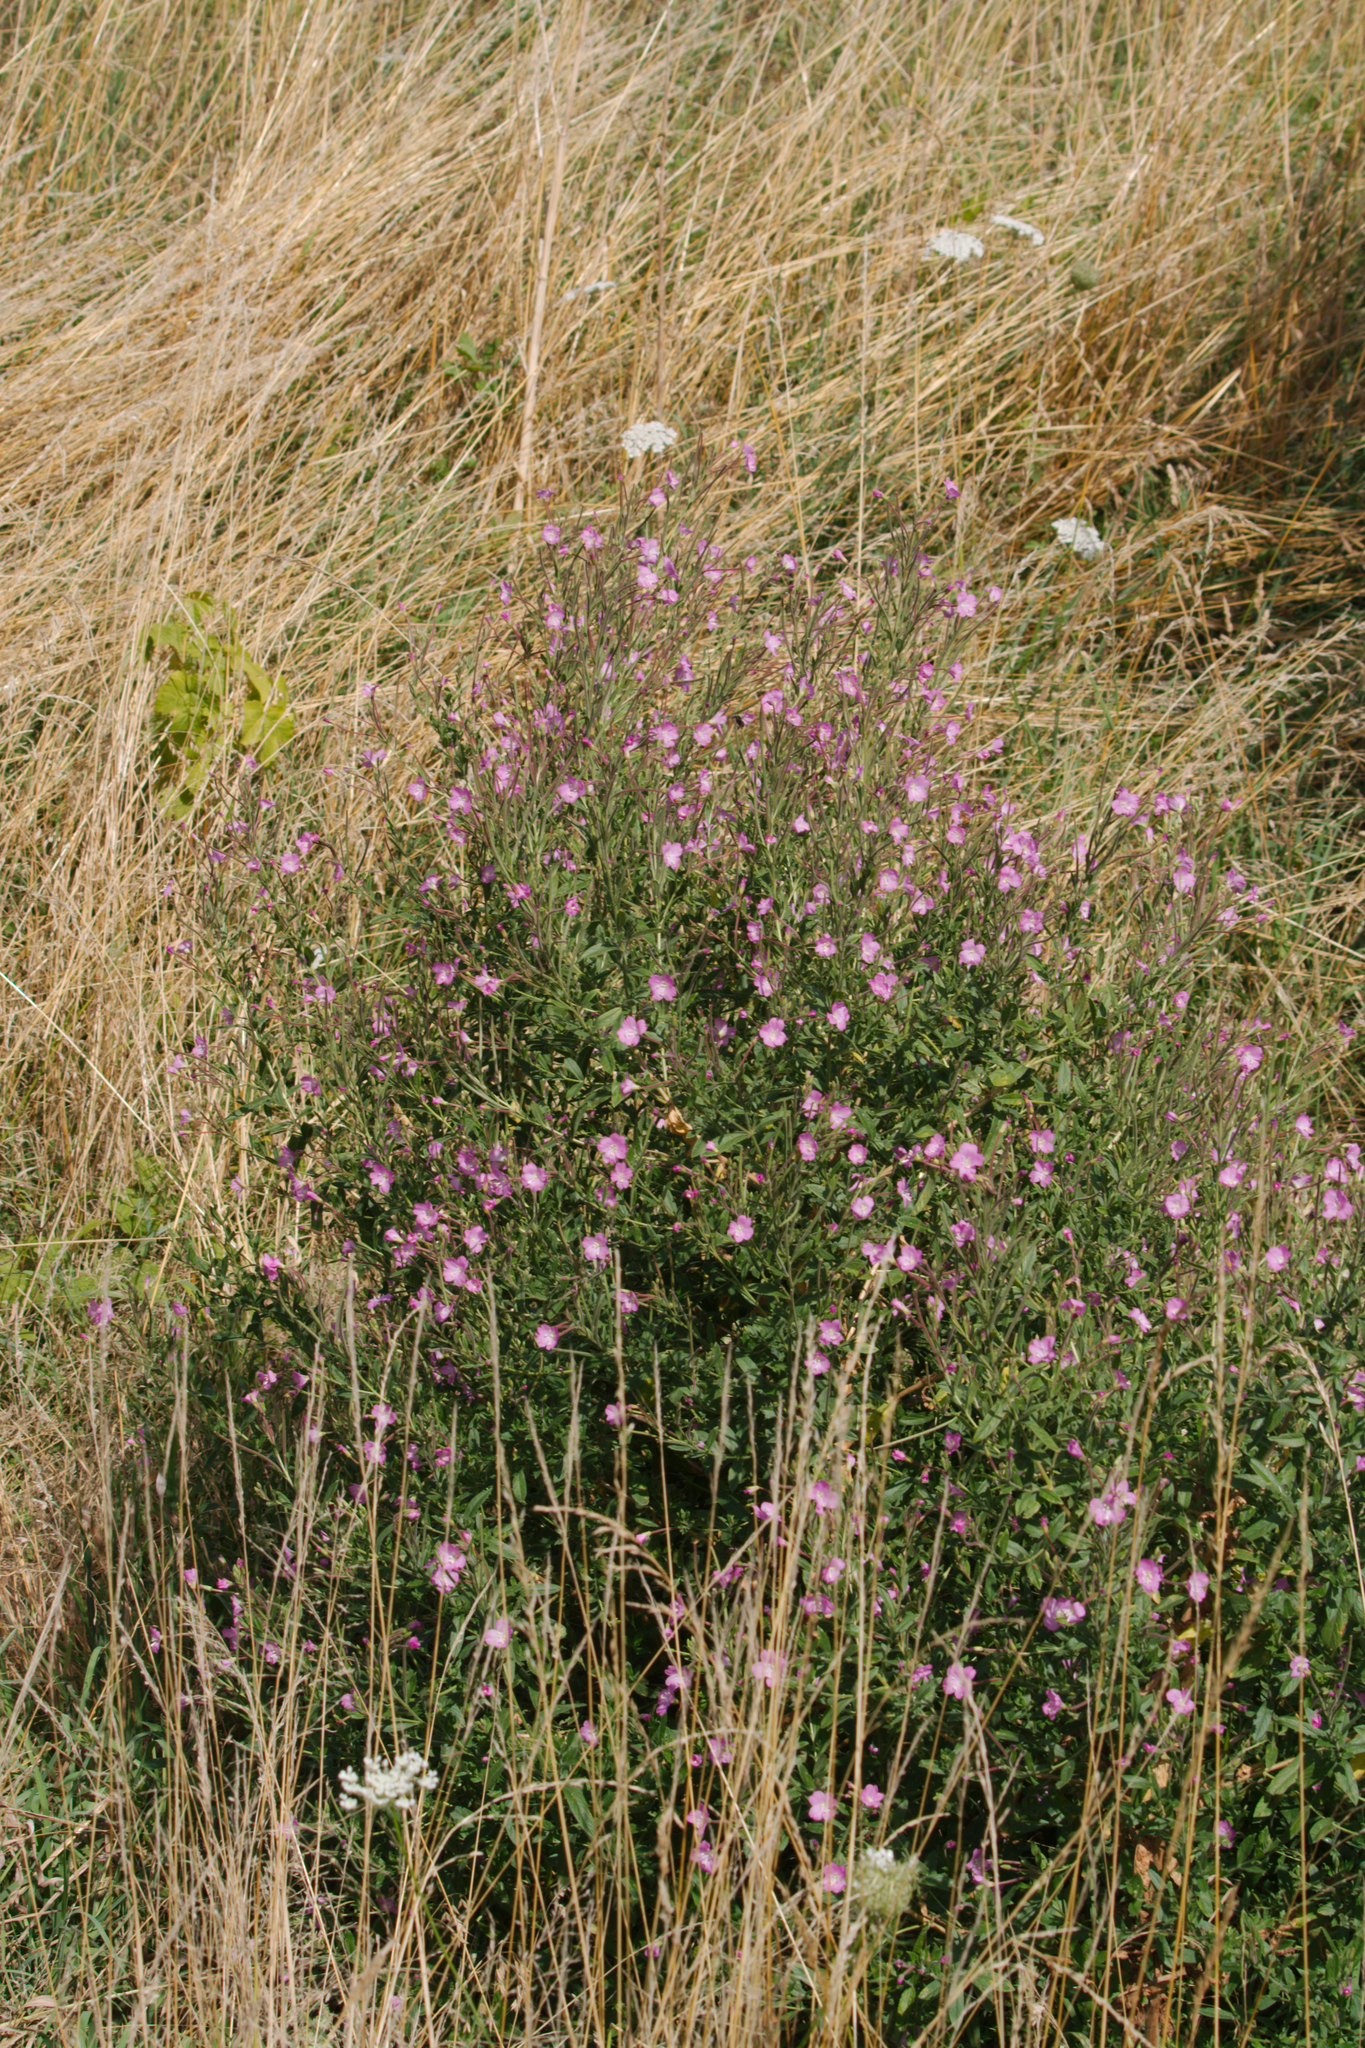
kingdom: Plantae
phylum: Tracheophyta
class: Magnoliopsida
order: Myrtales
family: Onagraceae
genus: Epilobium
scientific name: Epilobium hirsutum
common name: Great willowherb
